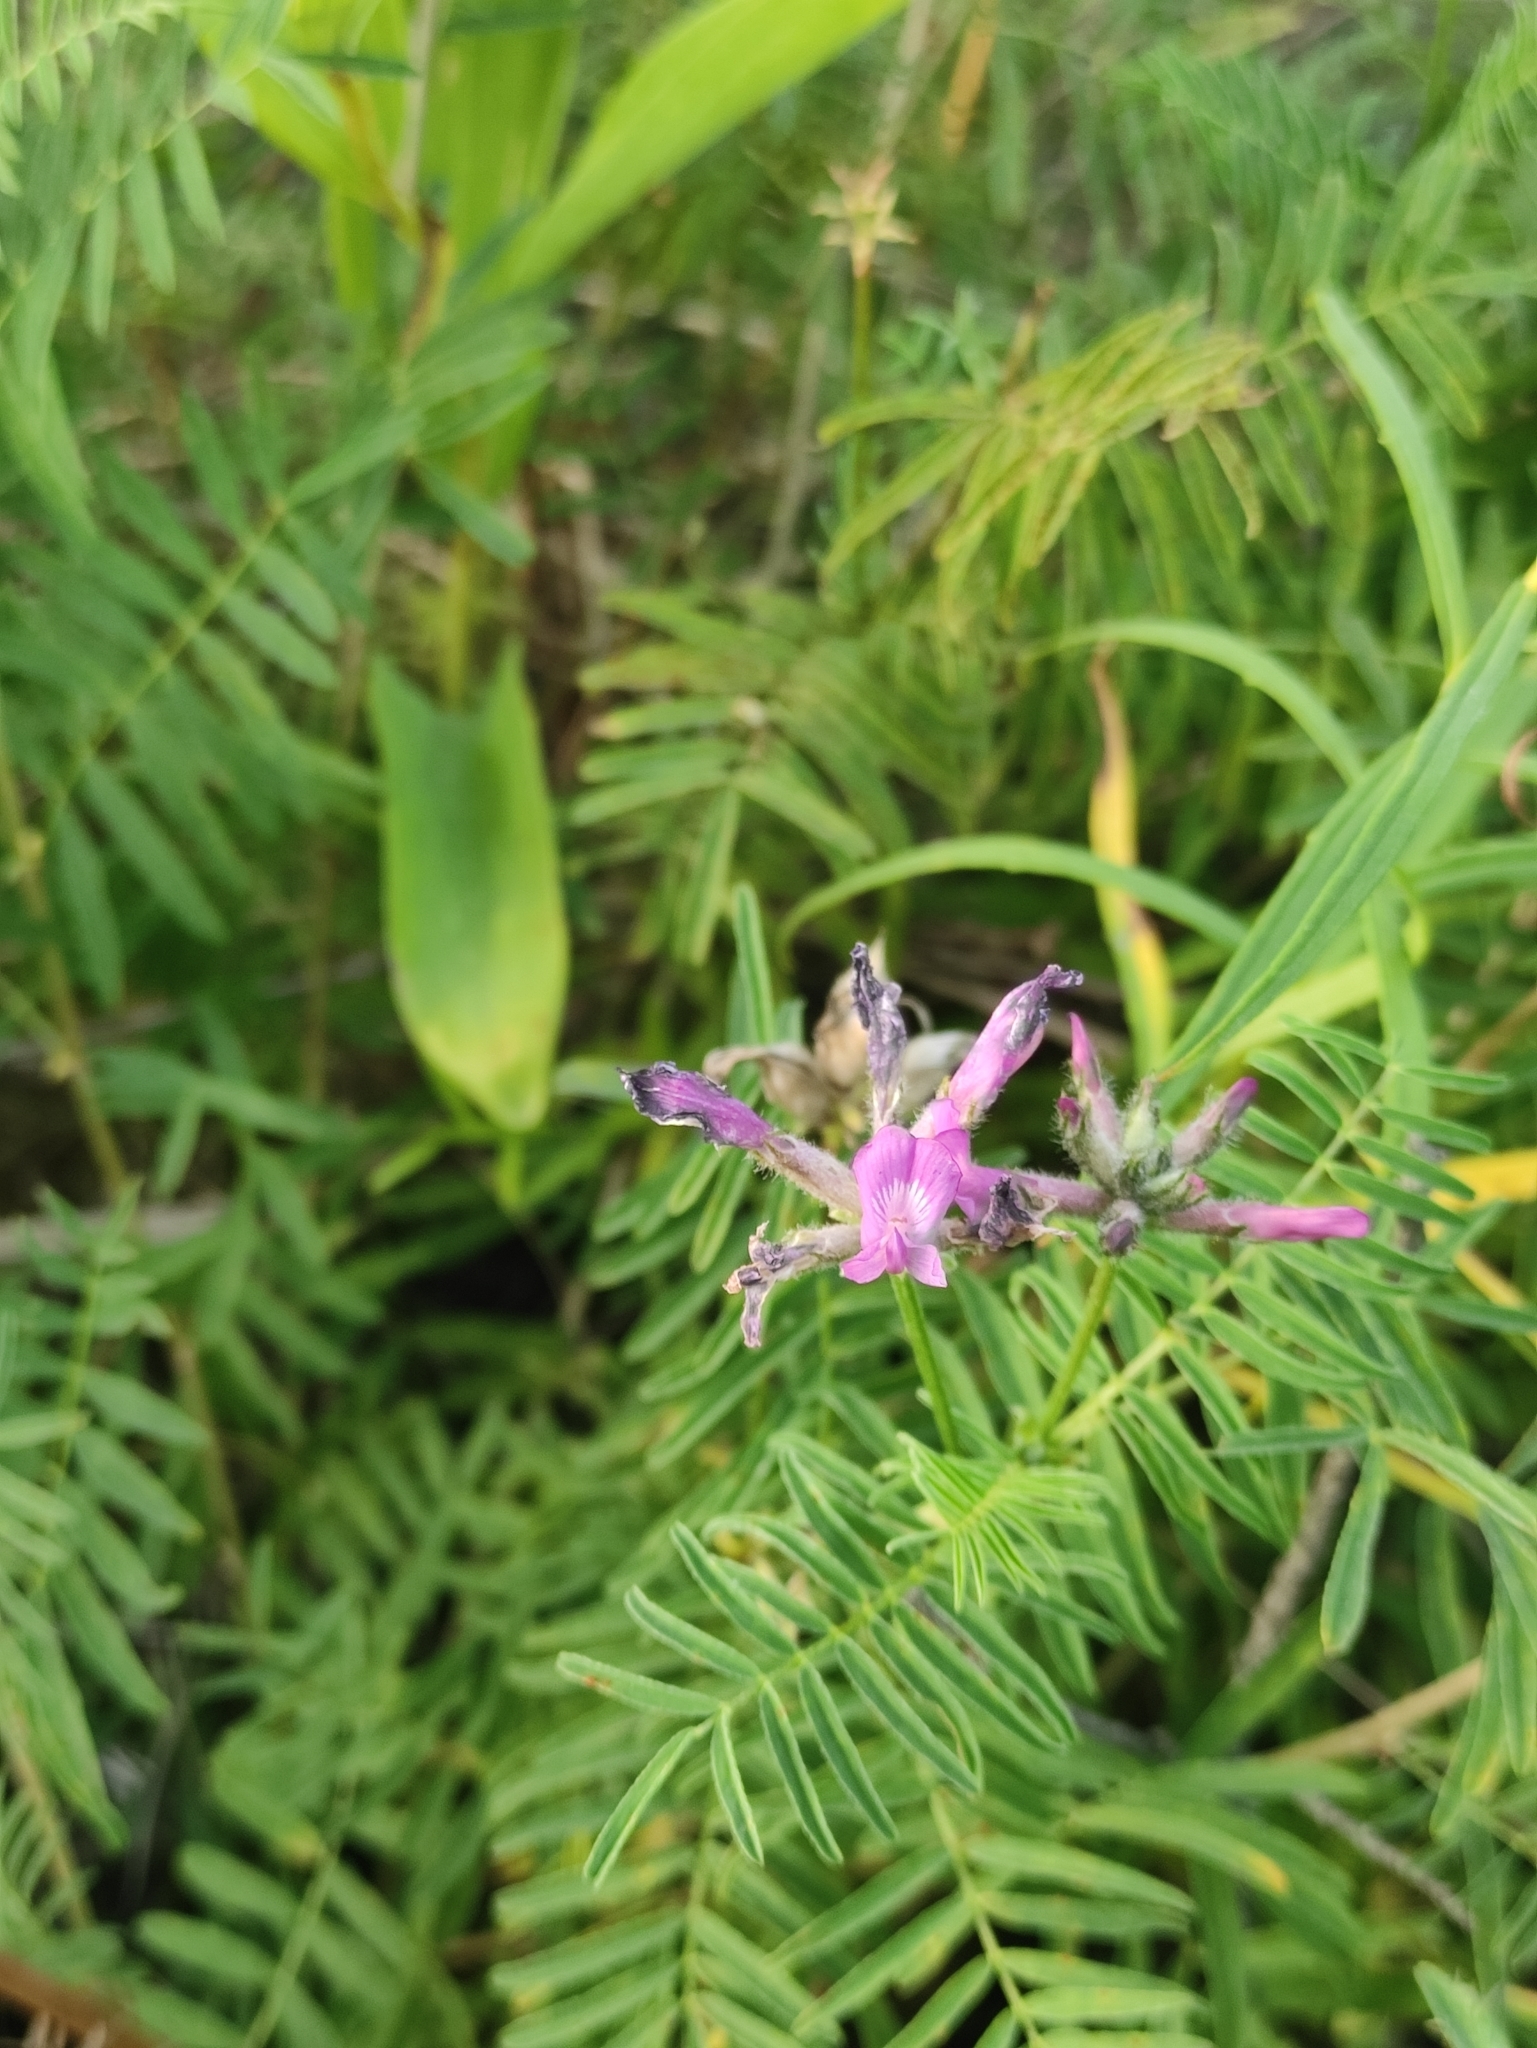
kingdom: Plantae
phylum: Tracheophyta
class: Magnoliopsida
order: Fabales
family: Fabaceae
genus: Astragalus
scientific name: Astragalus syriacus
